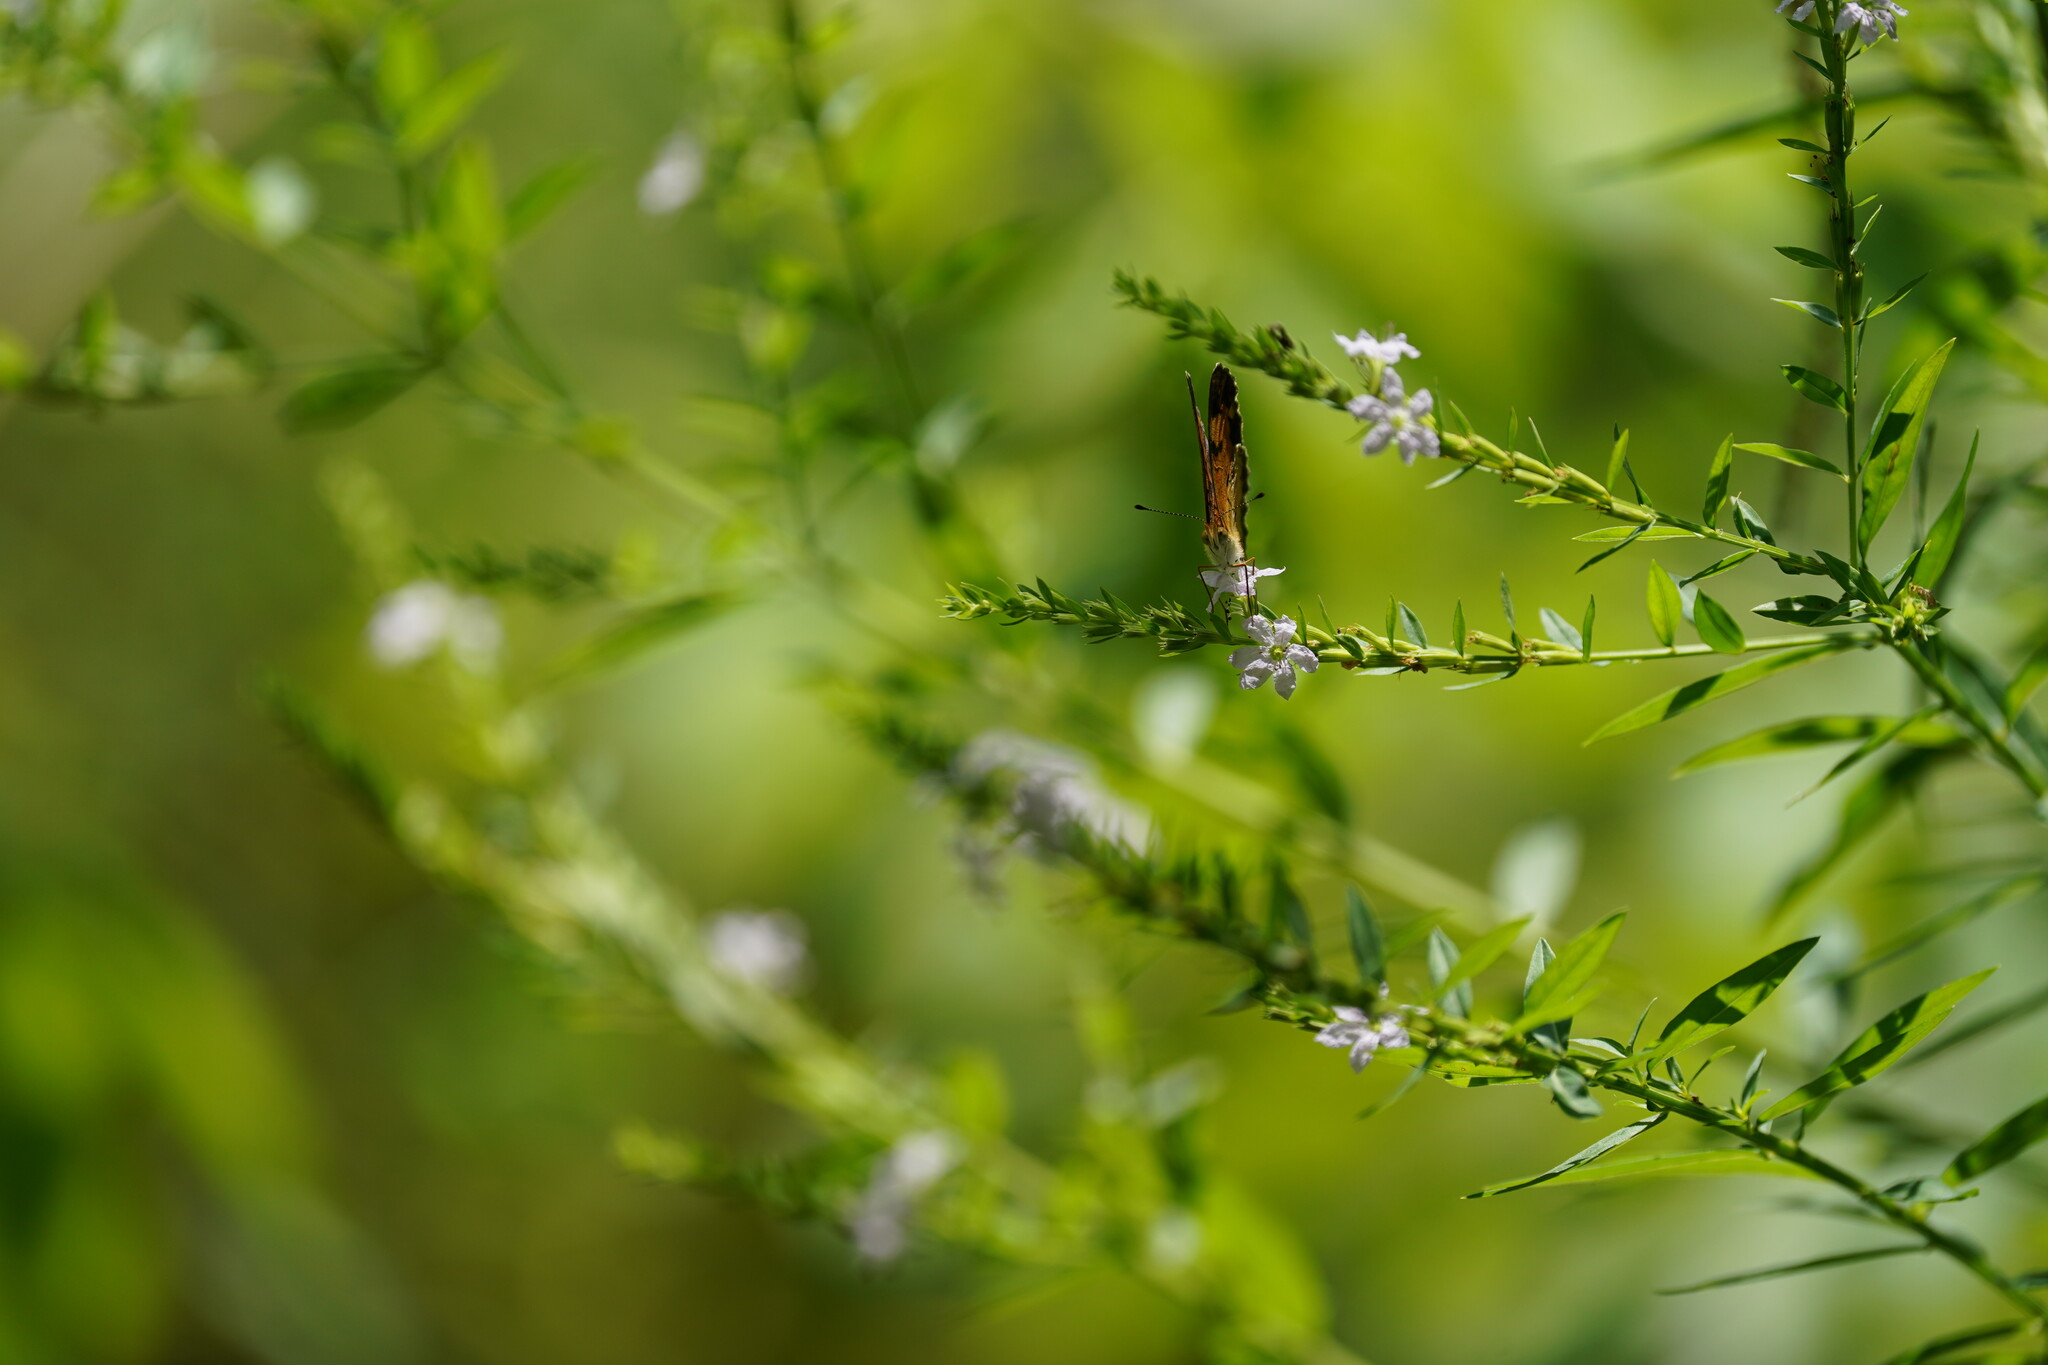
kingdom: Animalia
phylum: Arthropoda
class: Insecta
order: Lepidoptera
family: Nymphalidae
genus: Anthanassa
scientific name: Anthanassa taxana
